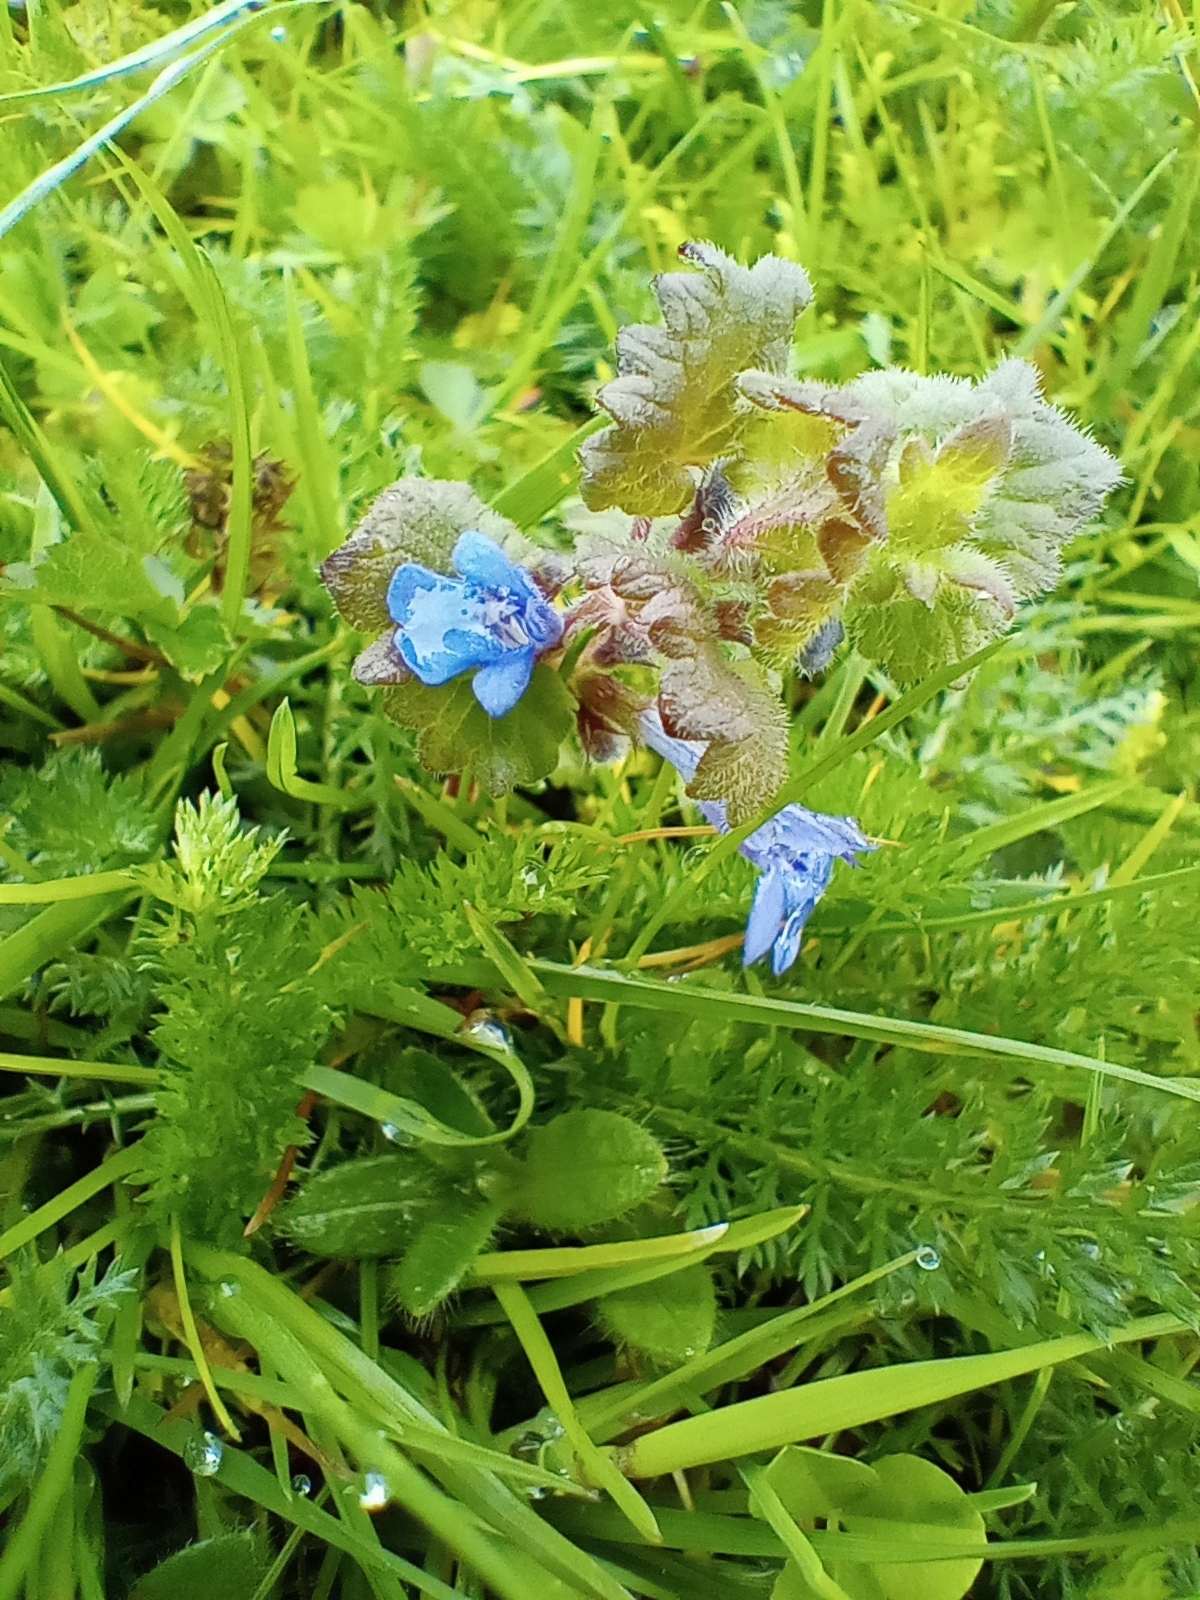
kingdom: Plantae
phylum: Tracheophyta
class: Magnoliopsida
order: Lamiales
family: Lamiaceae
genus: Glechoma
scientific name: Glechoma hederacea
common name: Ground ivy
